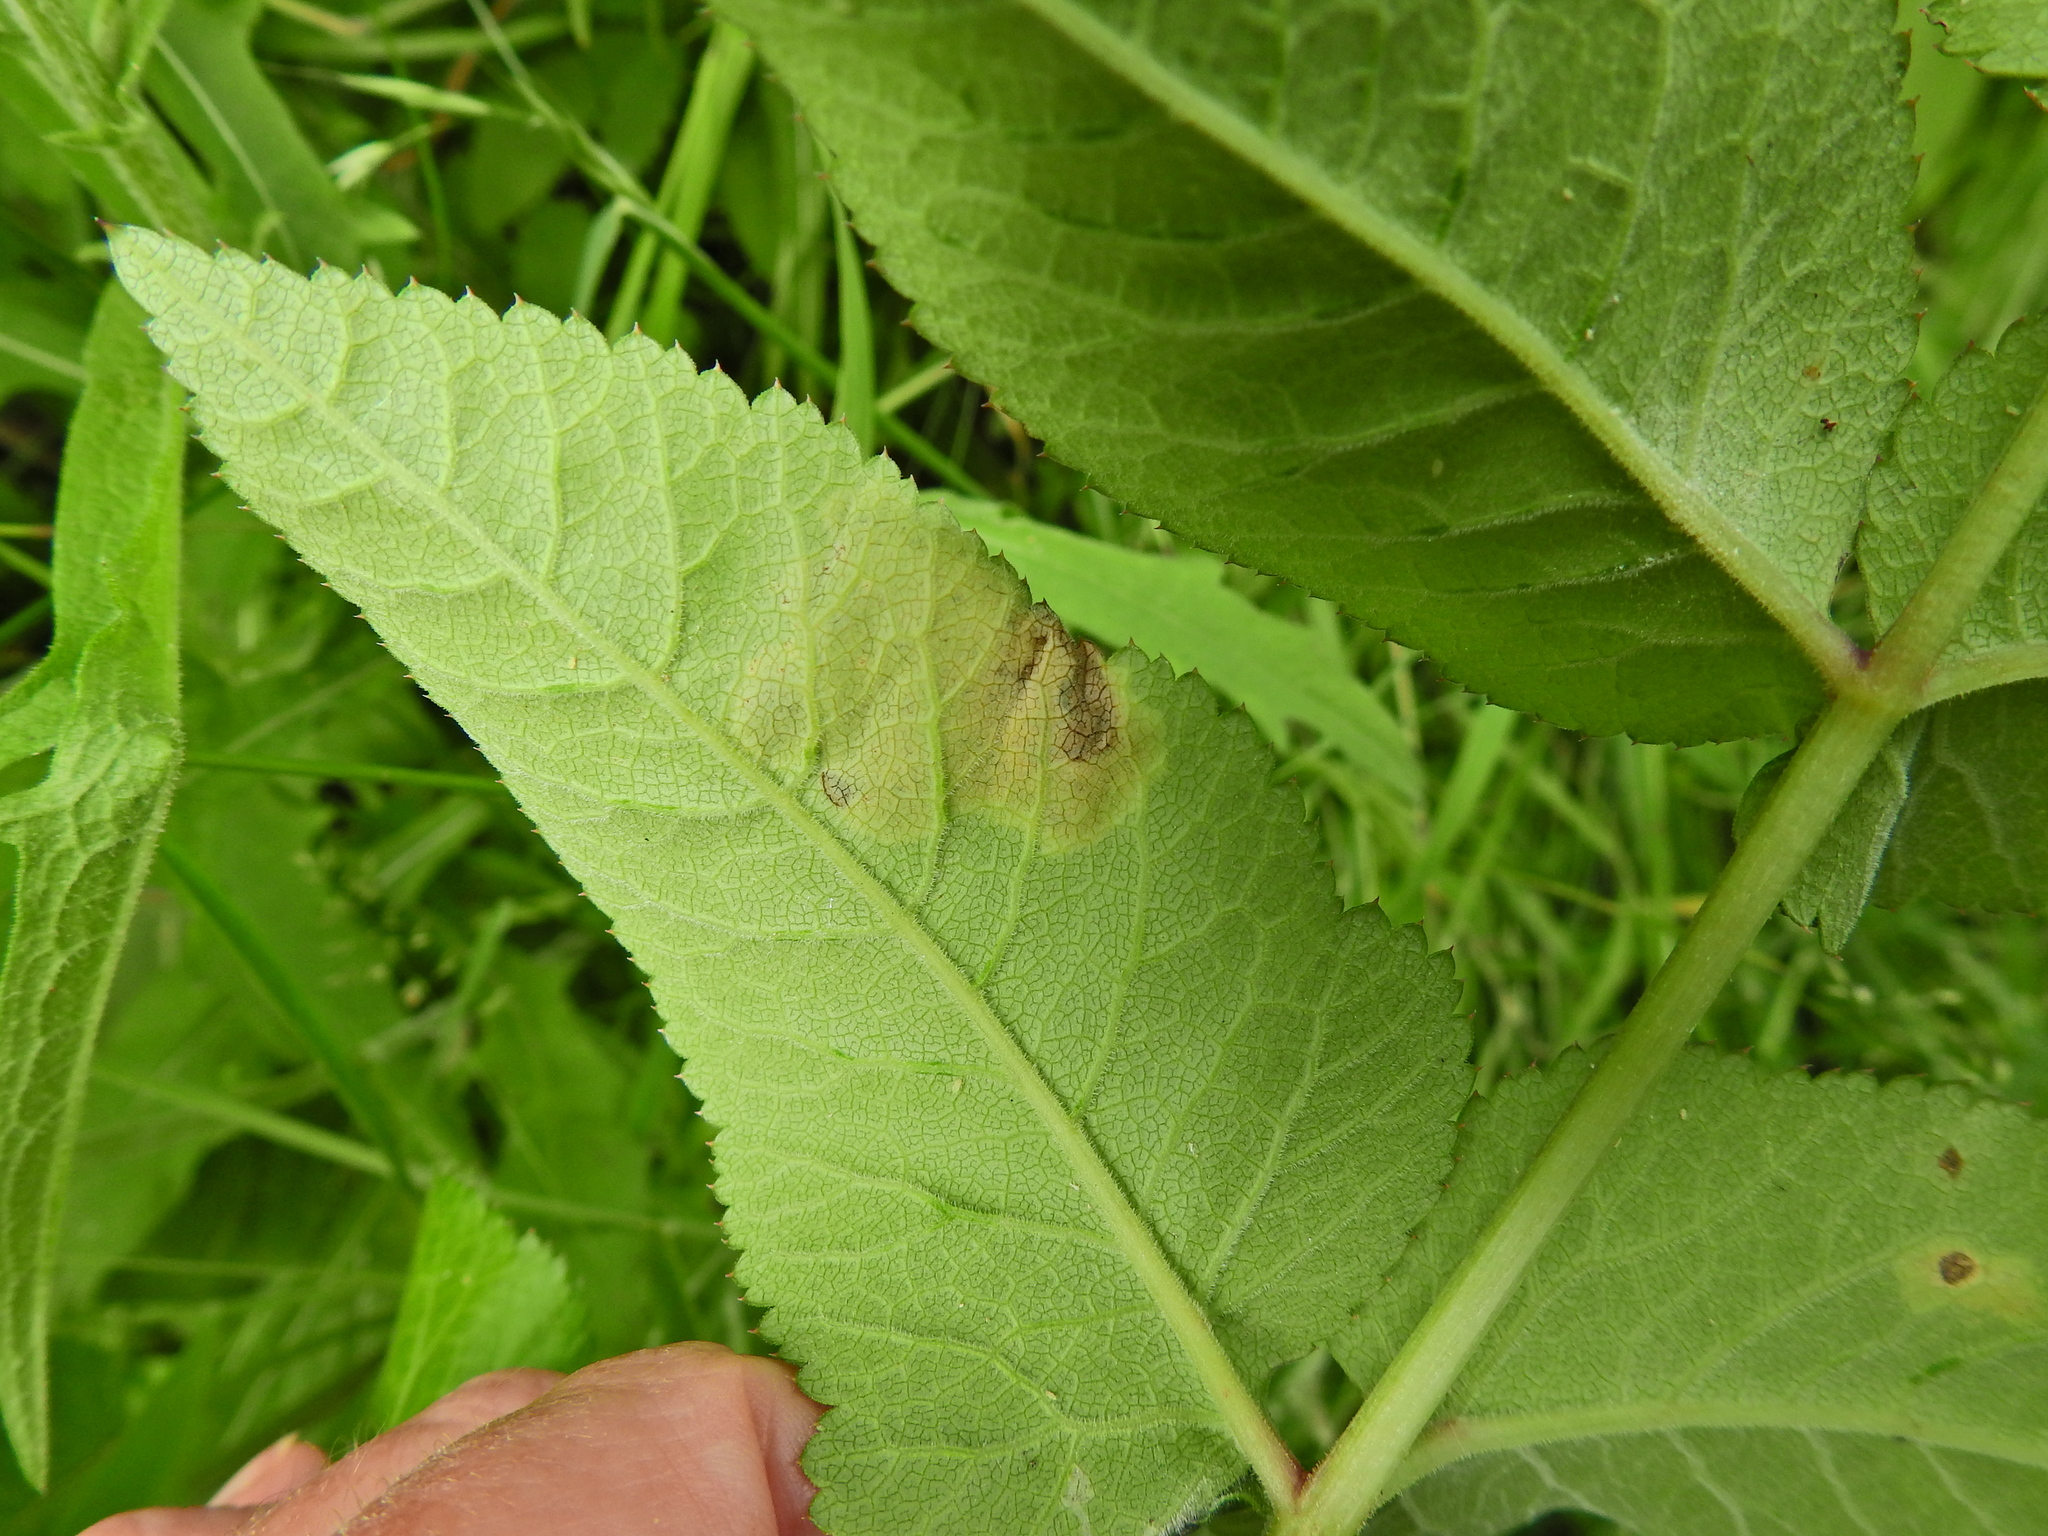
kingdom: Animalia
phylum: Arthropoda
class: Insecta
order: Diptera
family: Agromyzidae
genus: Phytomyza
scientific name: Phytomyza angelicae
